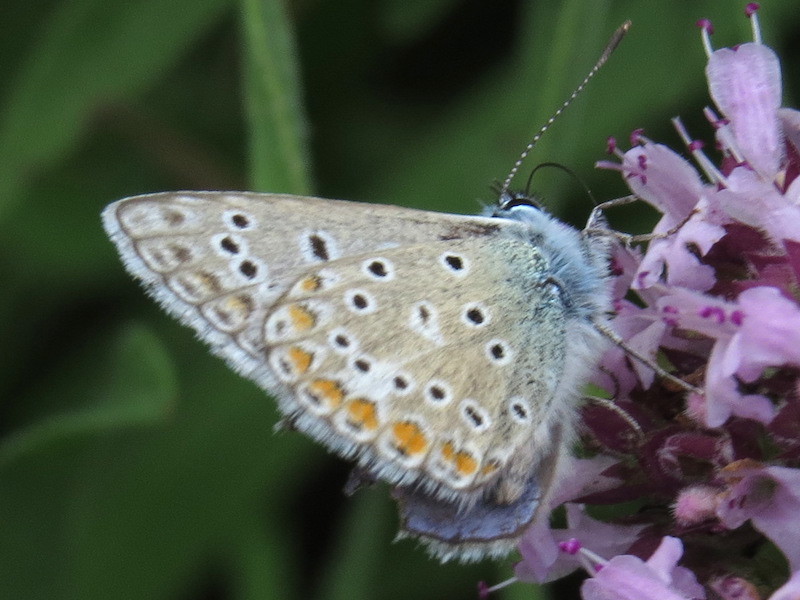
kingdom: Animalia
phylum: Arthropoda
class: Insecta
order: Lepidoptera
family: Lycaenidae
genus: Polyommatus
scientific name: Polyommatus icarus
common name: Common blue
